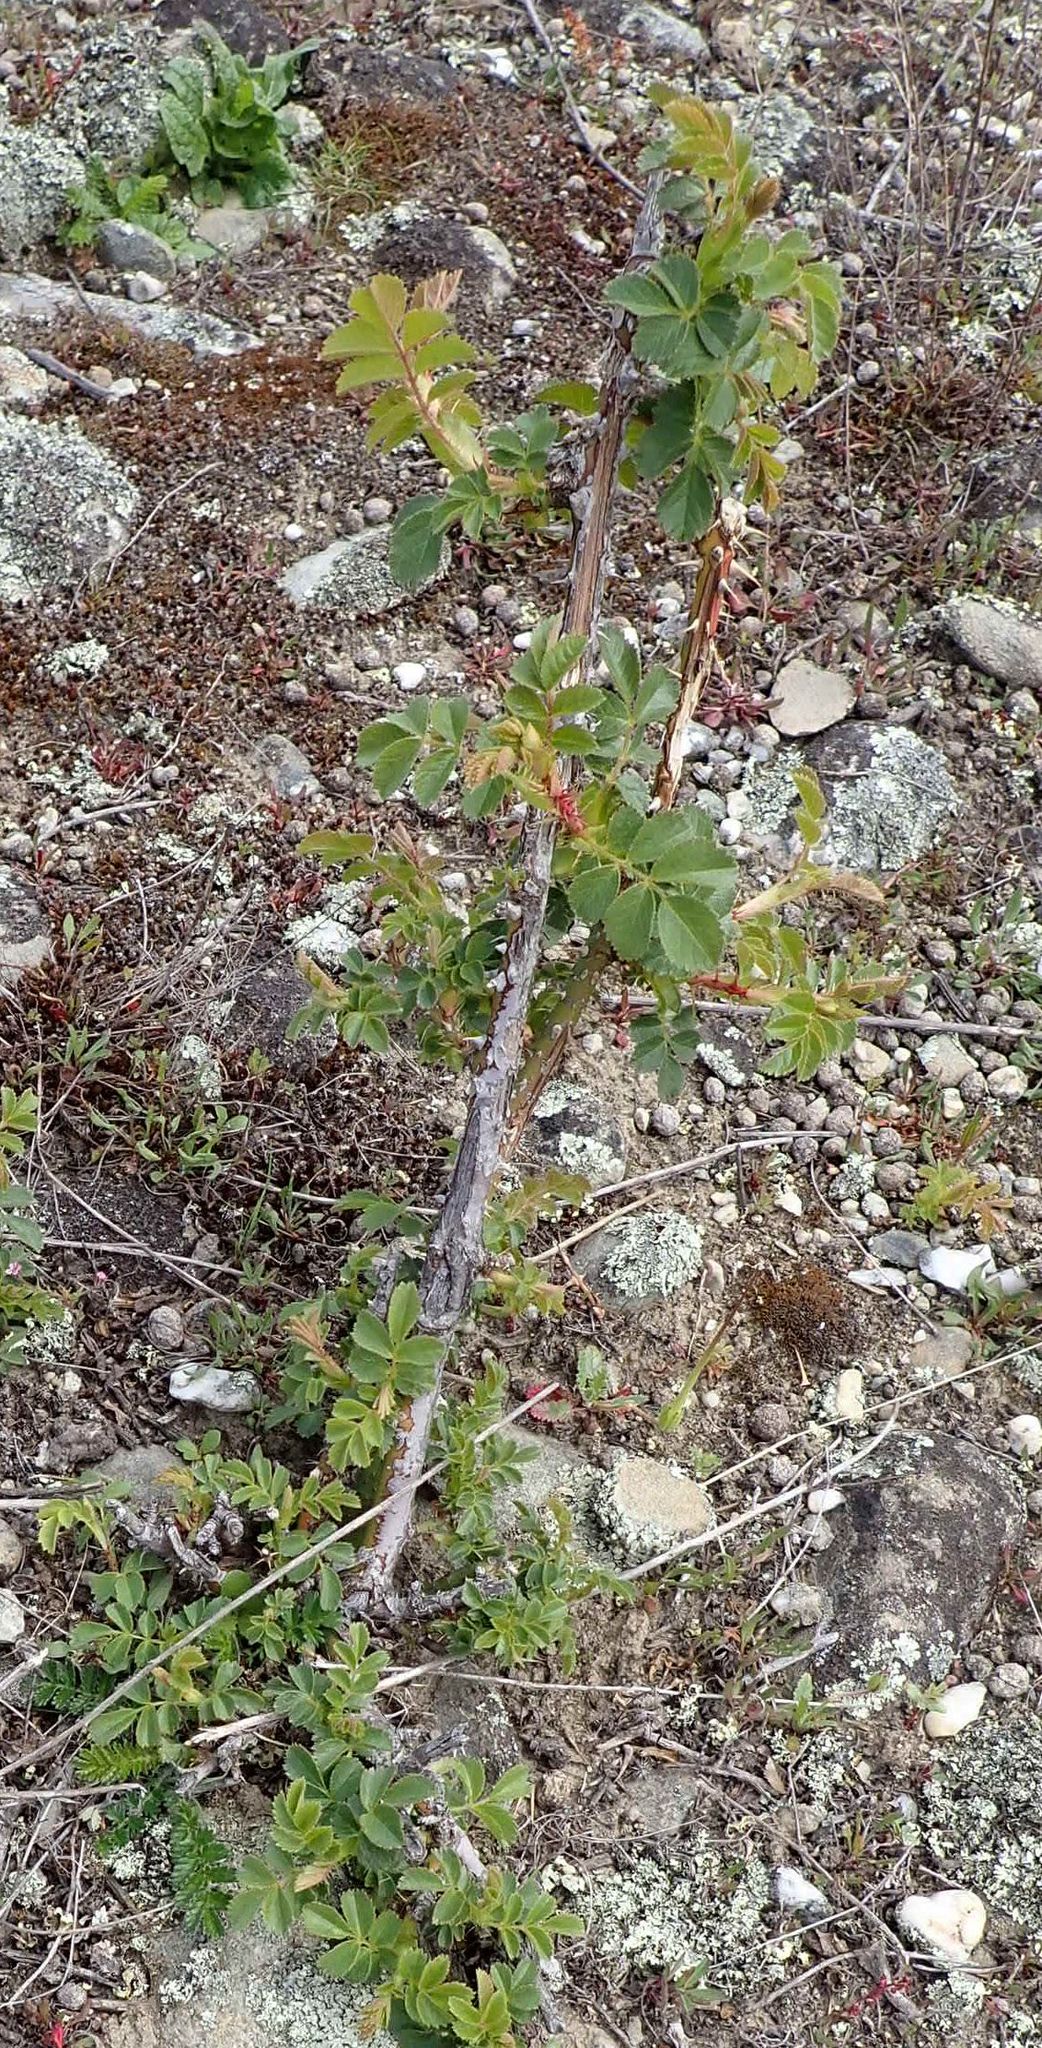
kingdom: Plantae
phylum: Tracheophyta
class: Magnoliopsida
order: Rosales
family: Rosaceae
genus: Rosa
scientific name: Rosa rubiginosa
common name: Sweet-briar
